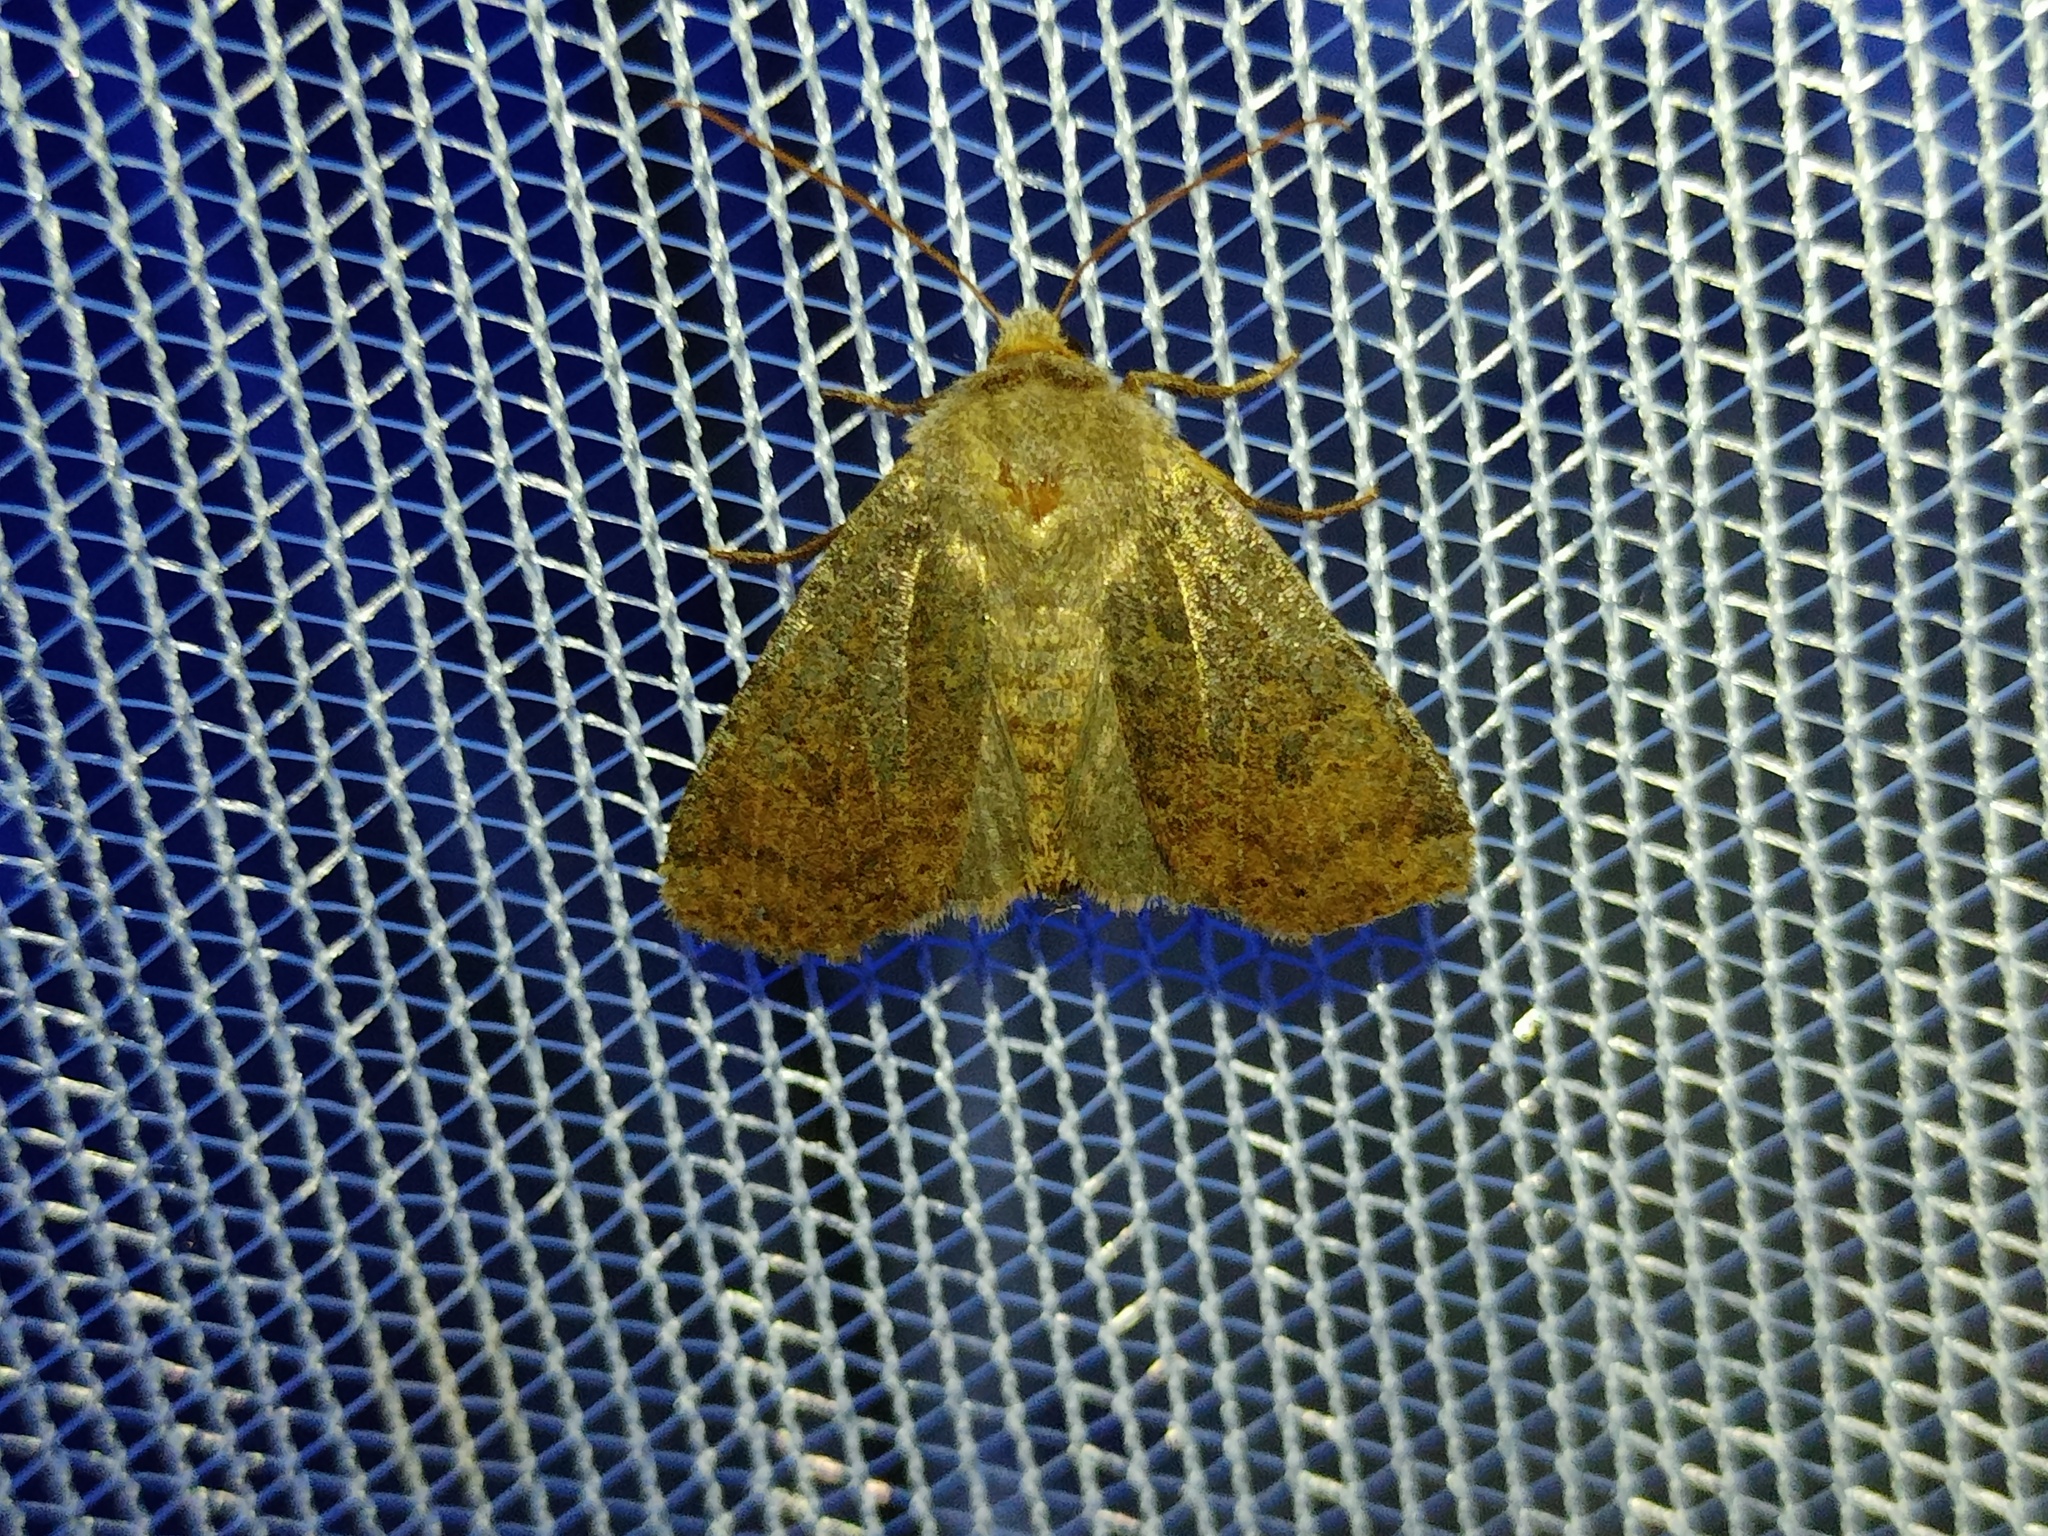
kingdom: Animalia
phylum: Arthropoda
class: Insecta
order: Lepidoptera
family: Noctuidae
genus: Conistra
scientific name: Conistra vaccinii
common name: Chestnut
